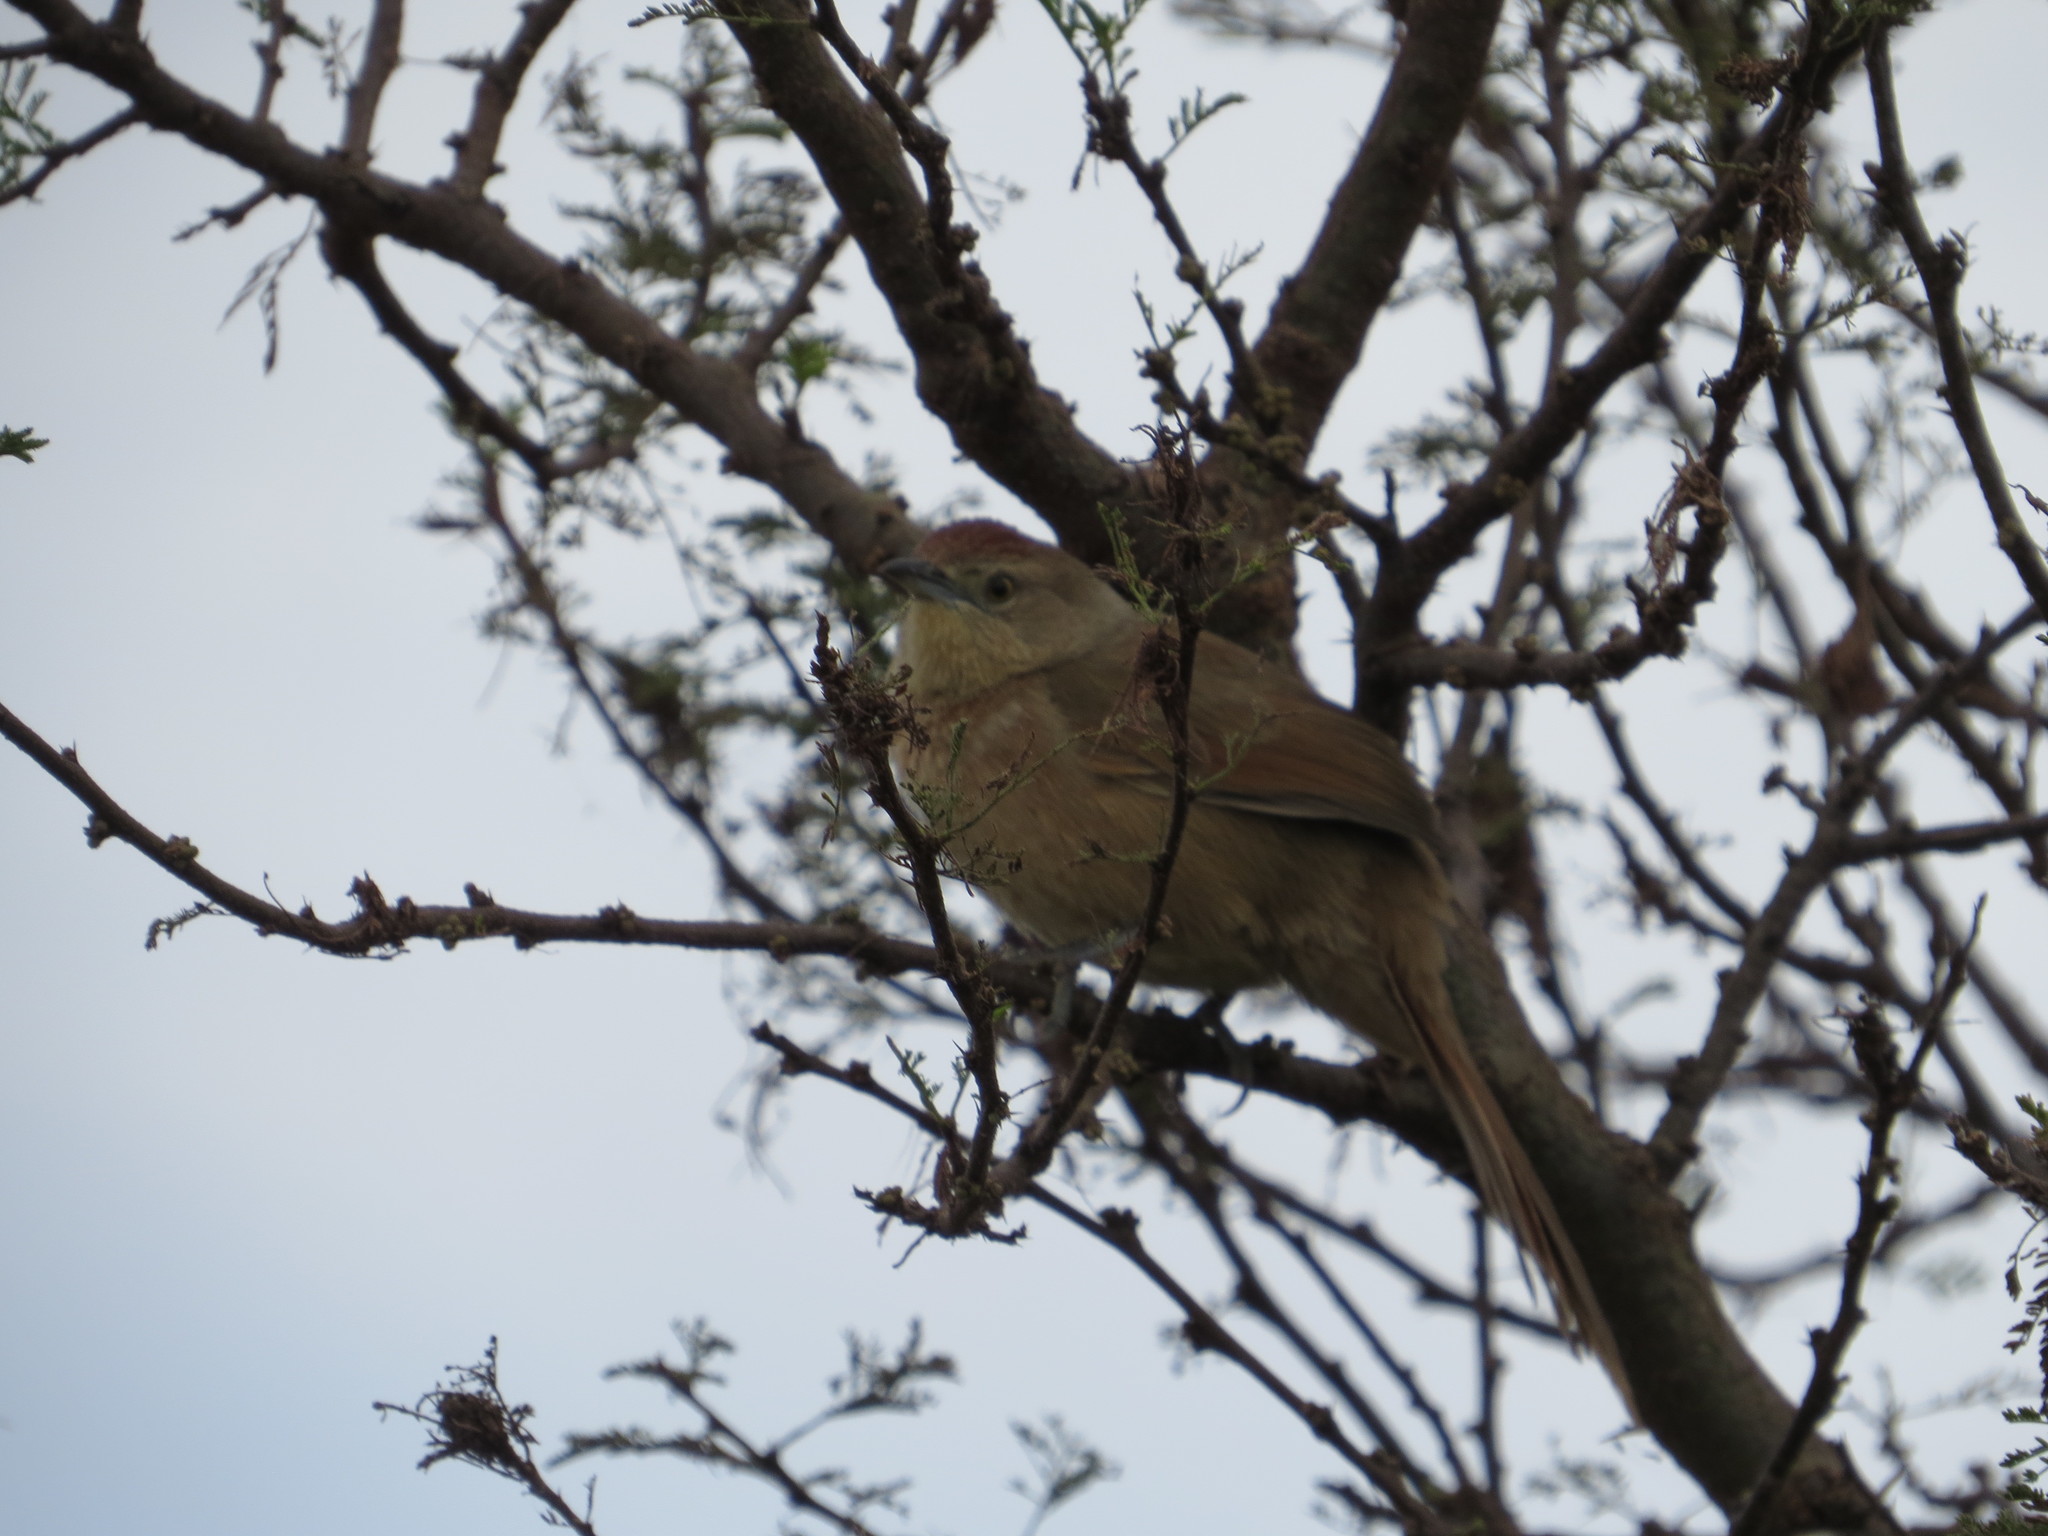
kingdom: Animalia
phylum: Chordata
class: Aves
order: Passeriformes
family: Furnariidae
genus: Phacellodomus
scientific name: Phacellodomus striaticollis
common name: Freckle-breasted thornbird
